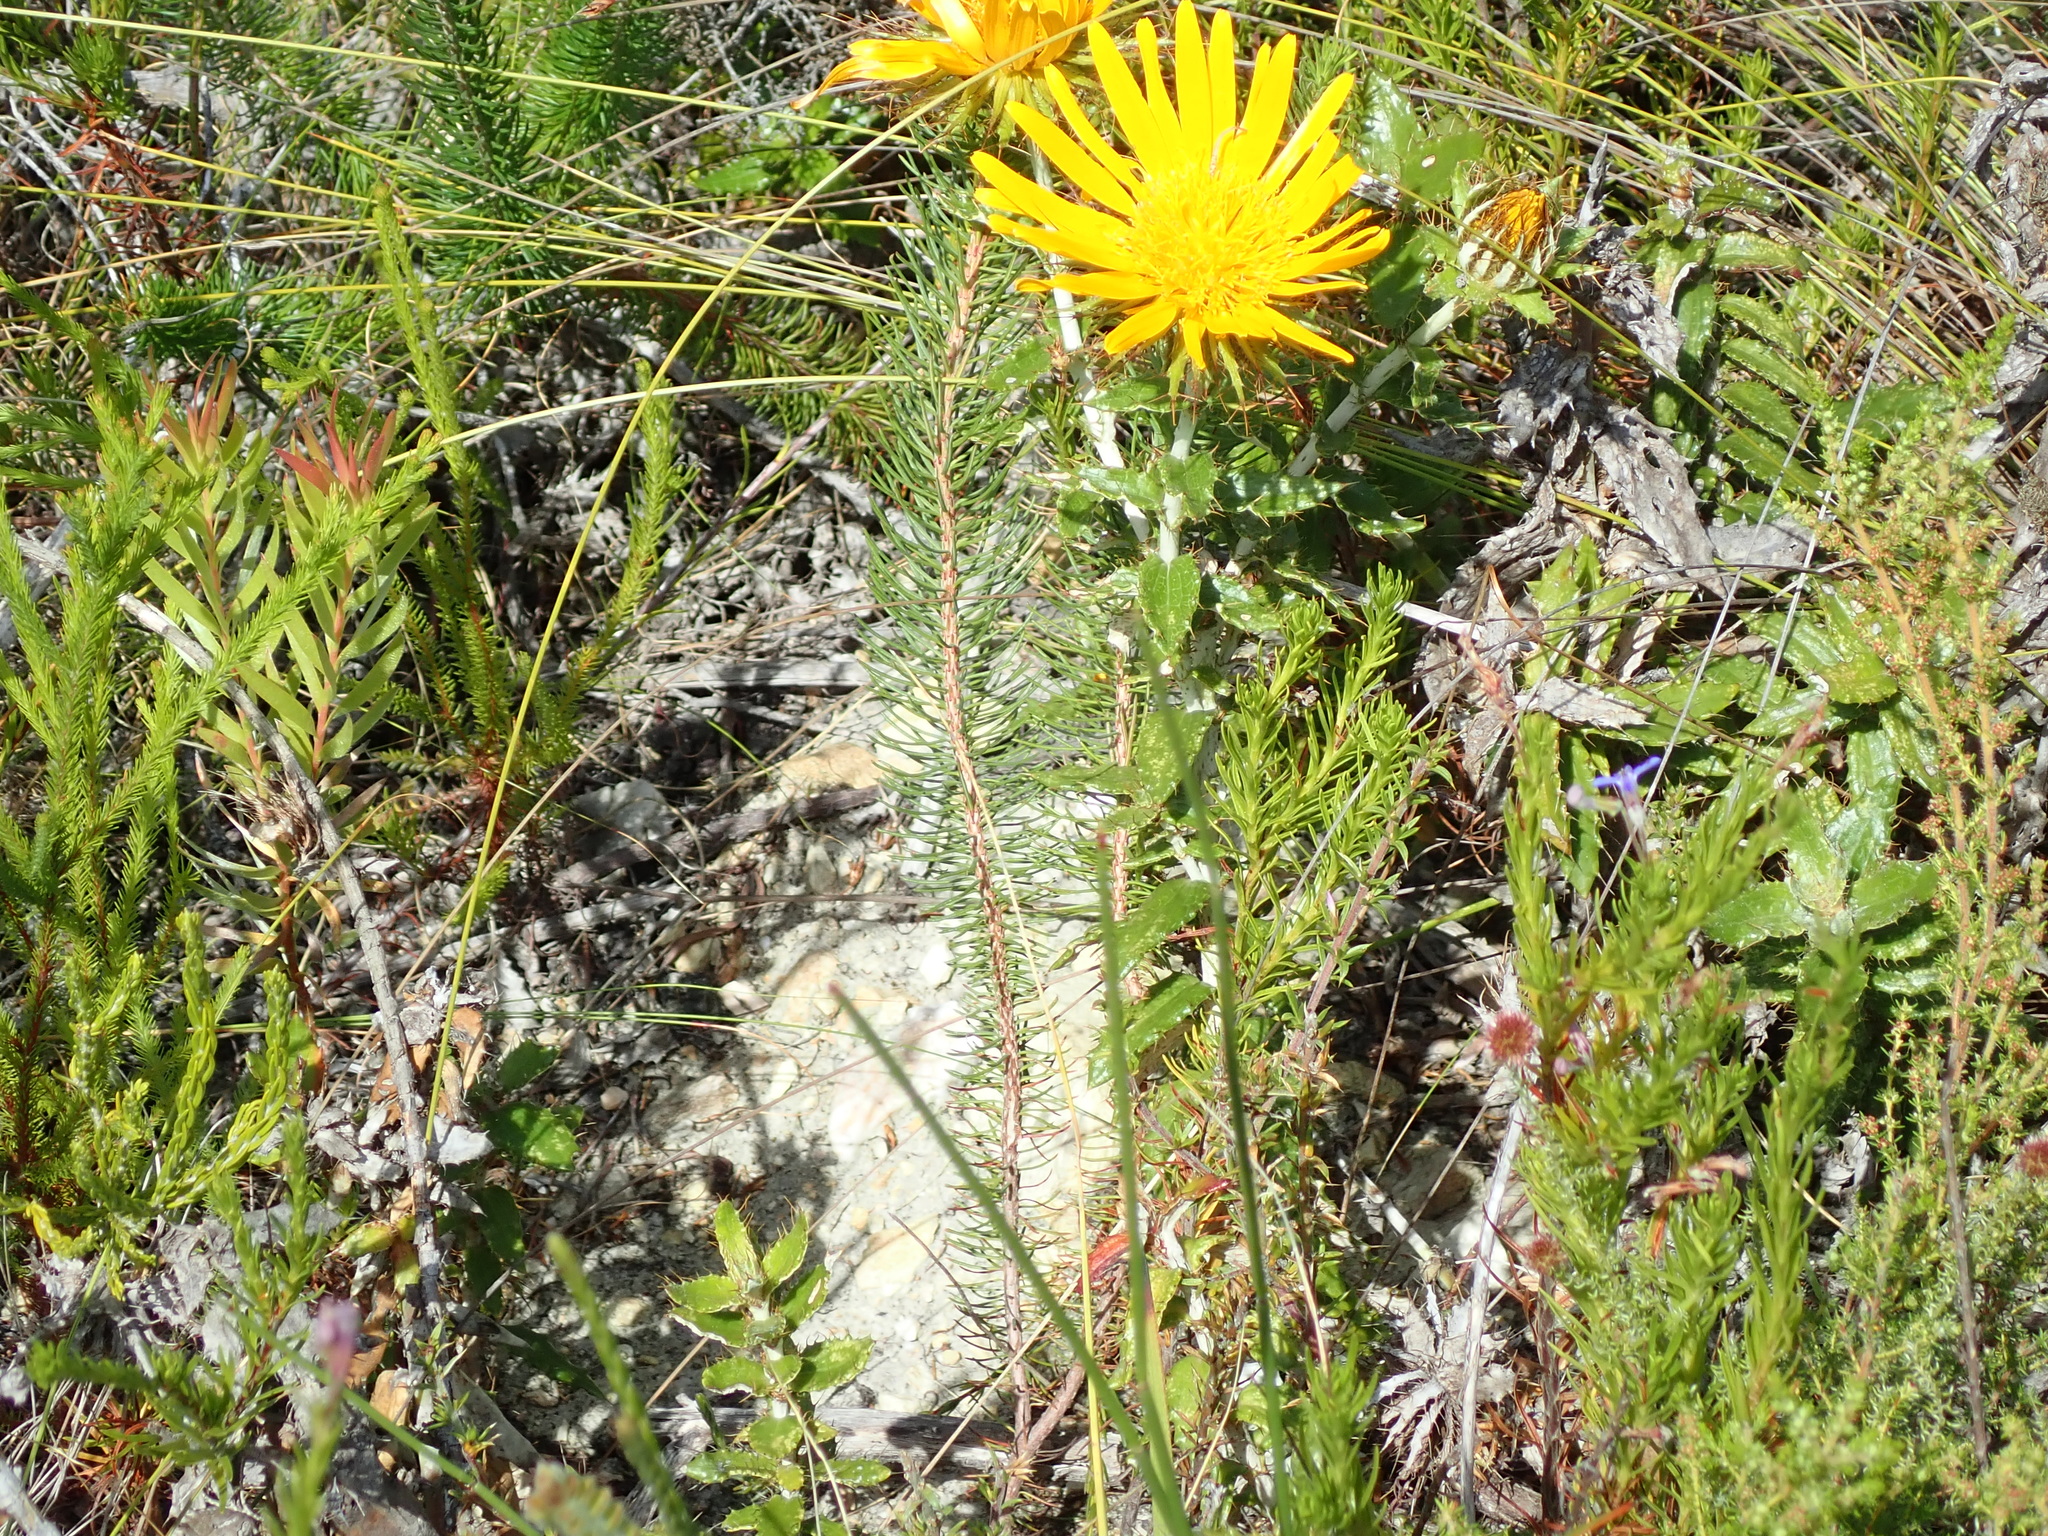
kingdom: Plantae
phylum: Tracheophyta
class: Magnoliopsida
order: Asterales
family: Asteraceae
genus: Berkheya
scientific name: Berkheya barbata
